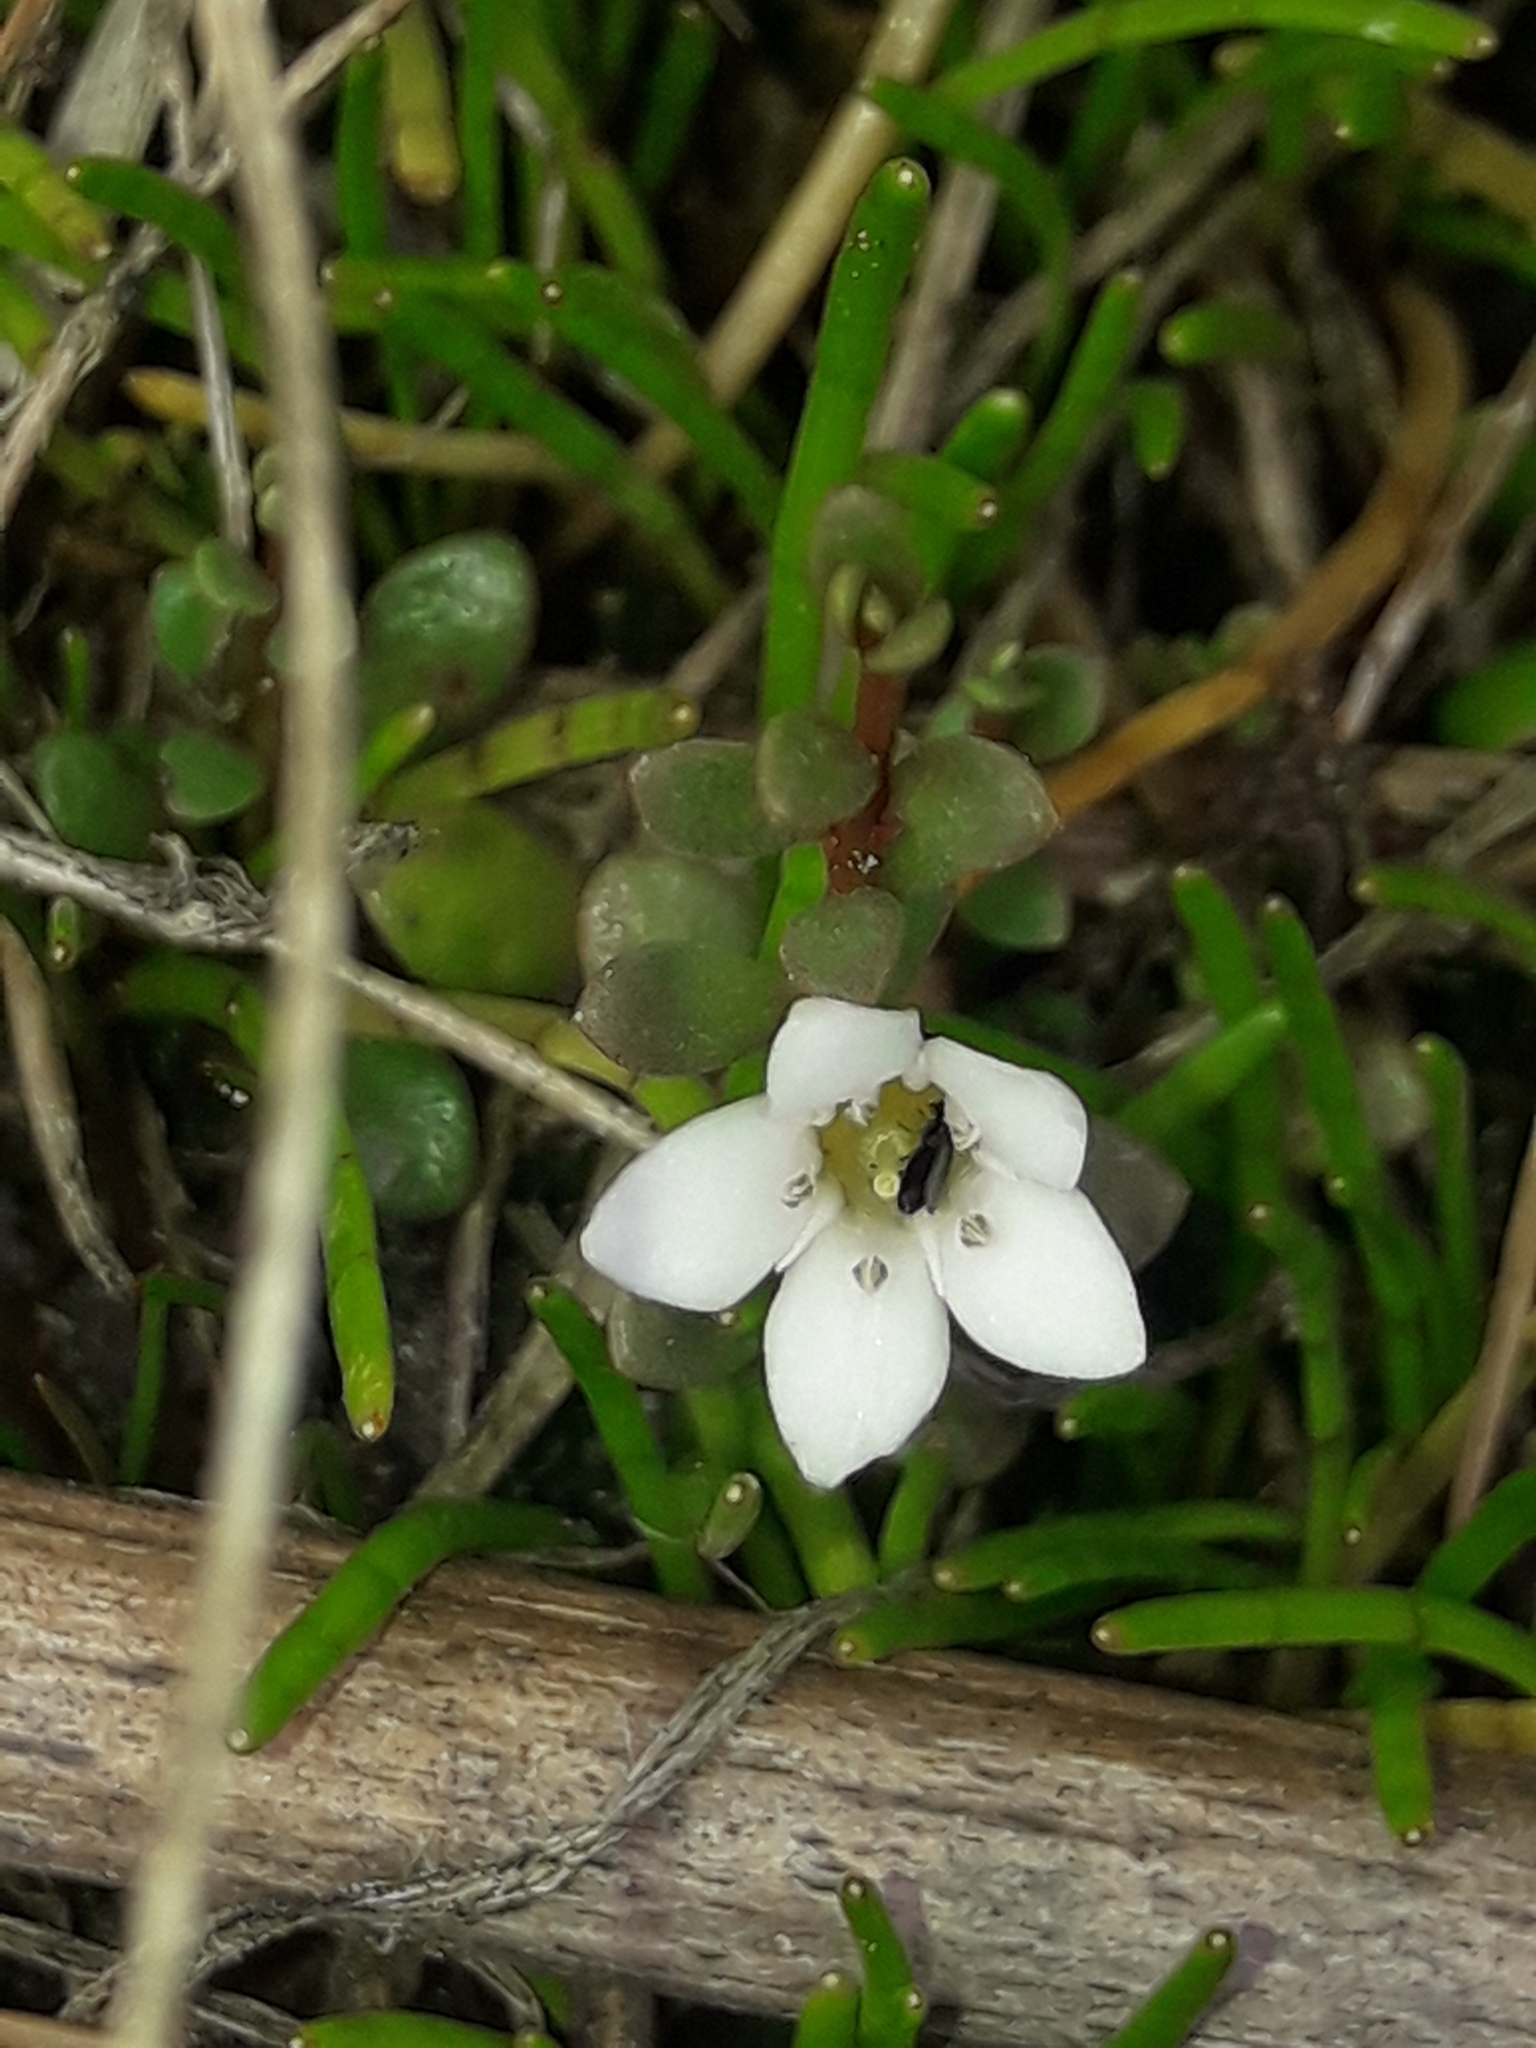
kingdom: Plantae
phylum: Tracheophyta
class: Magnoliopsida
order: Ericales
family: Primulaceae
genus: Samolus
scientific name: Samolus repens
